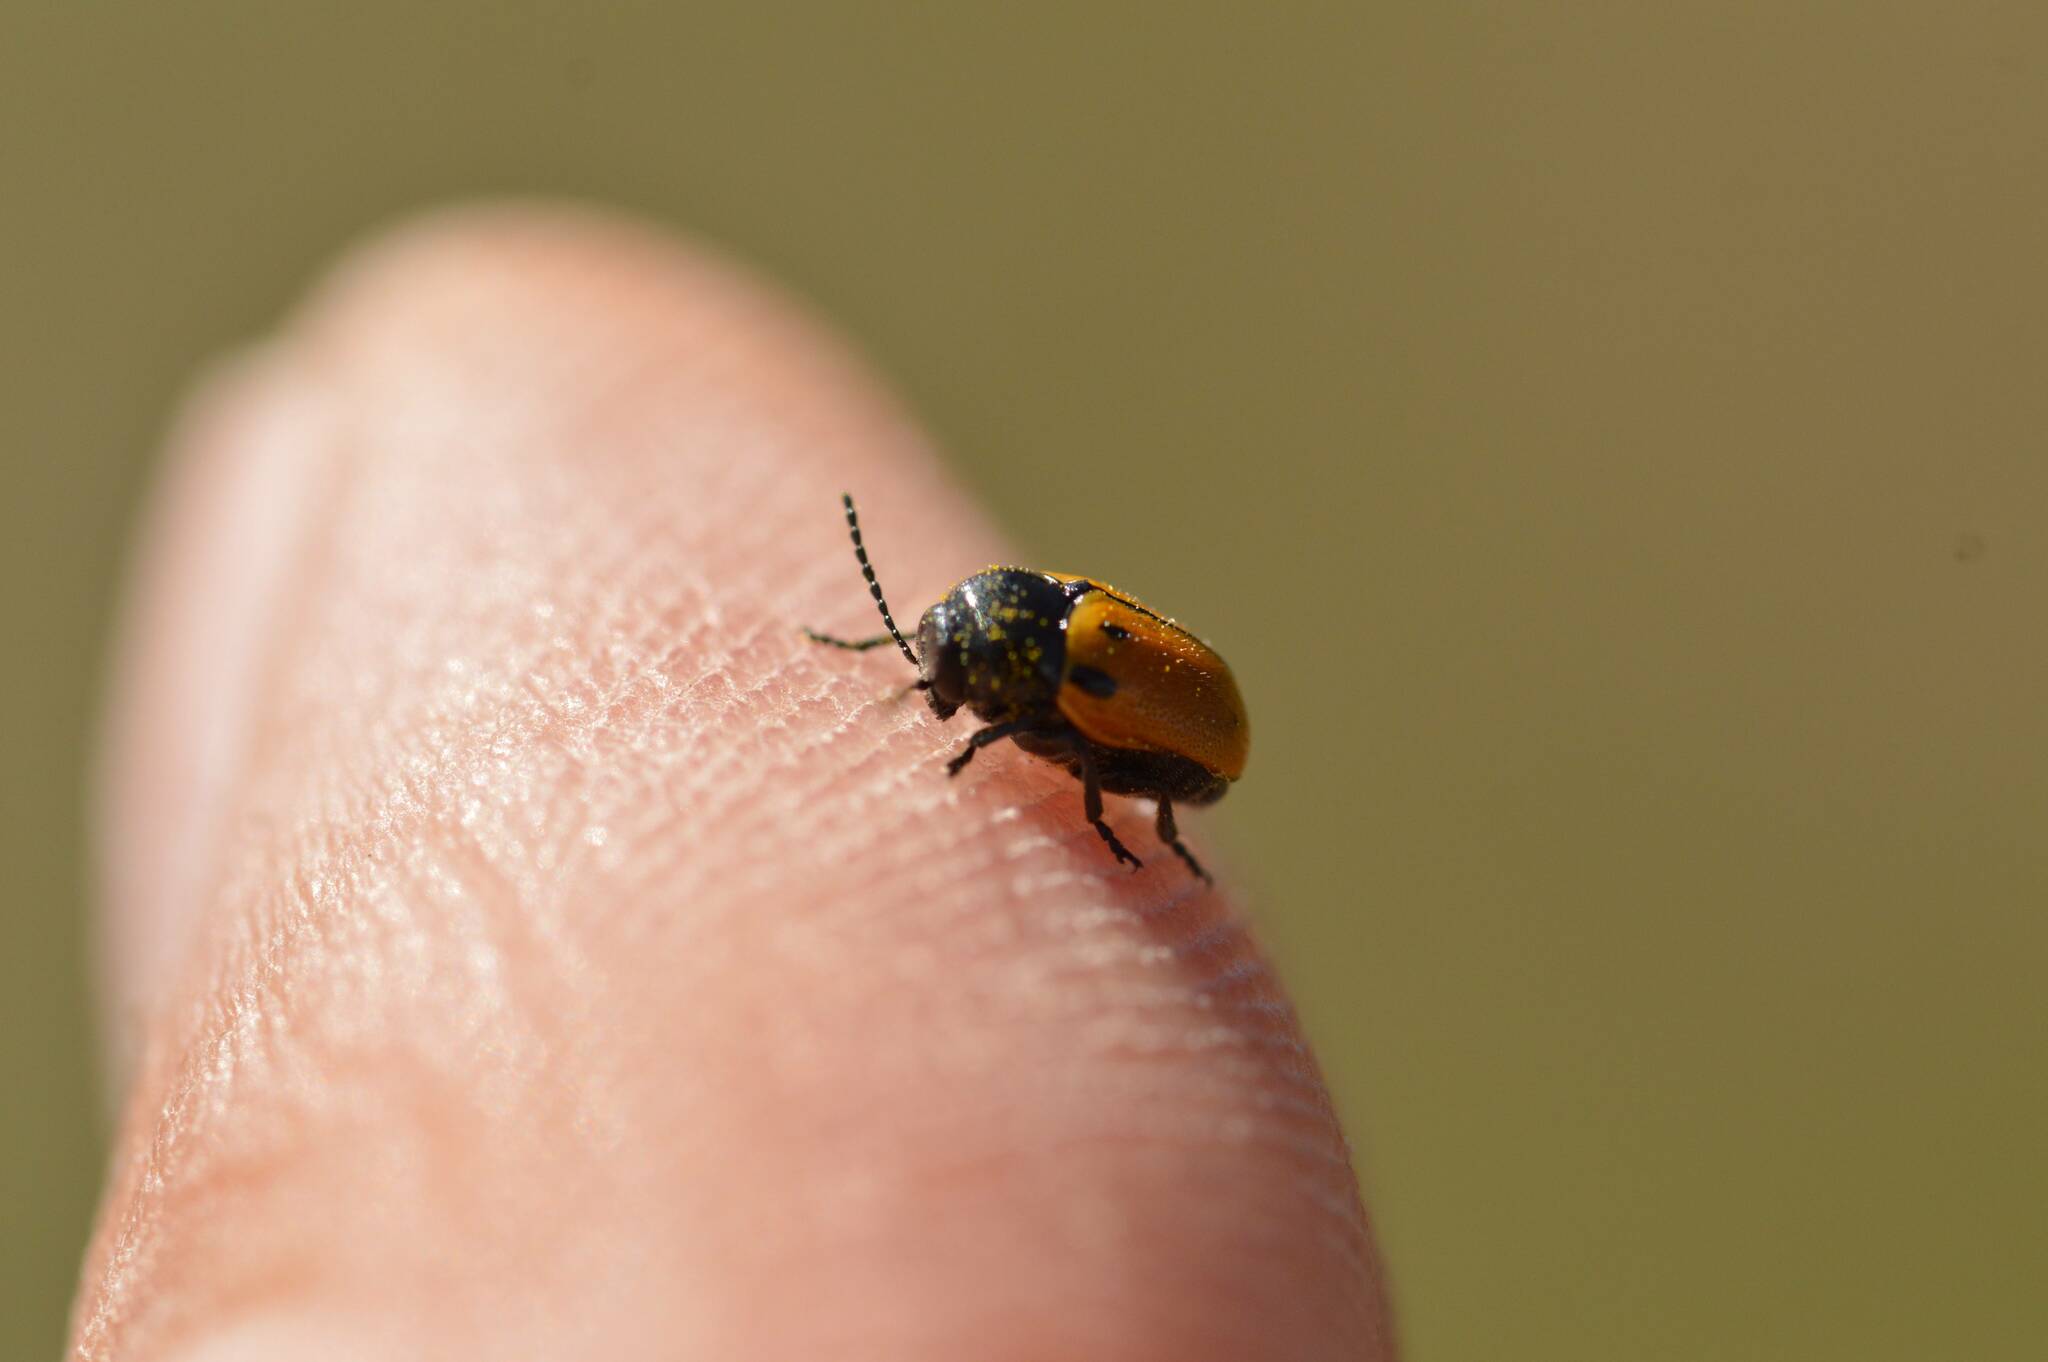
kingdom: Animalia
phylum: Arthropoda
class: Insecta
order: Coleoptera
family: Chrysomelidae
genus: Cryptocephalus
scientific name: Cryptocephalus rugicollis
